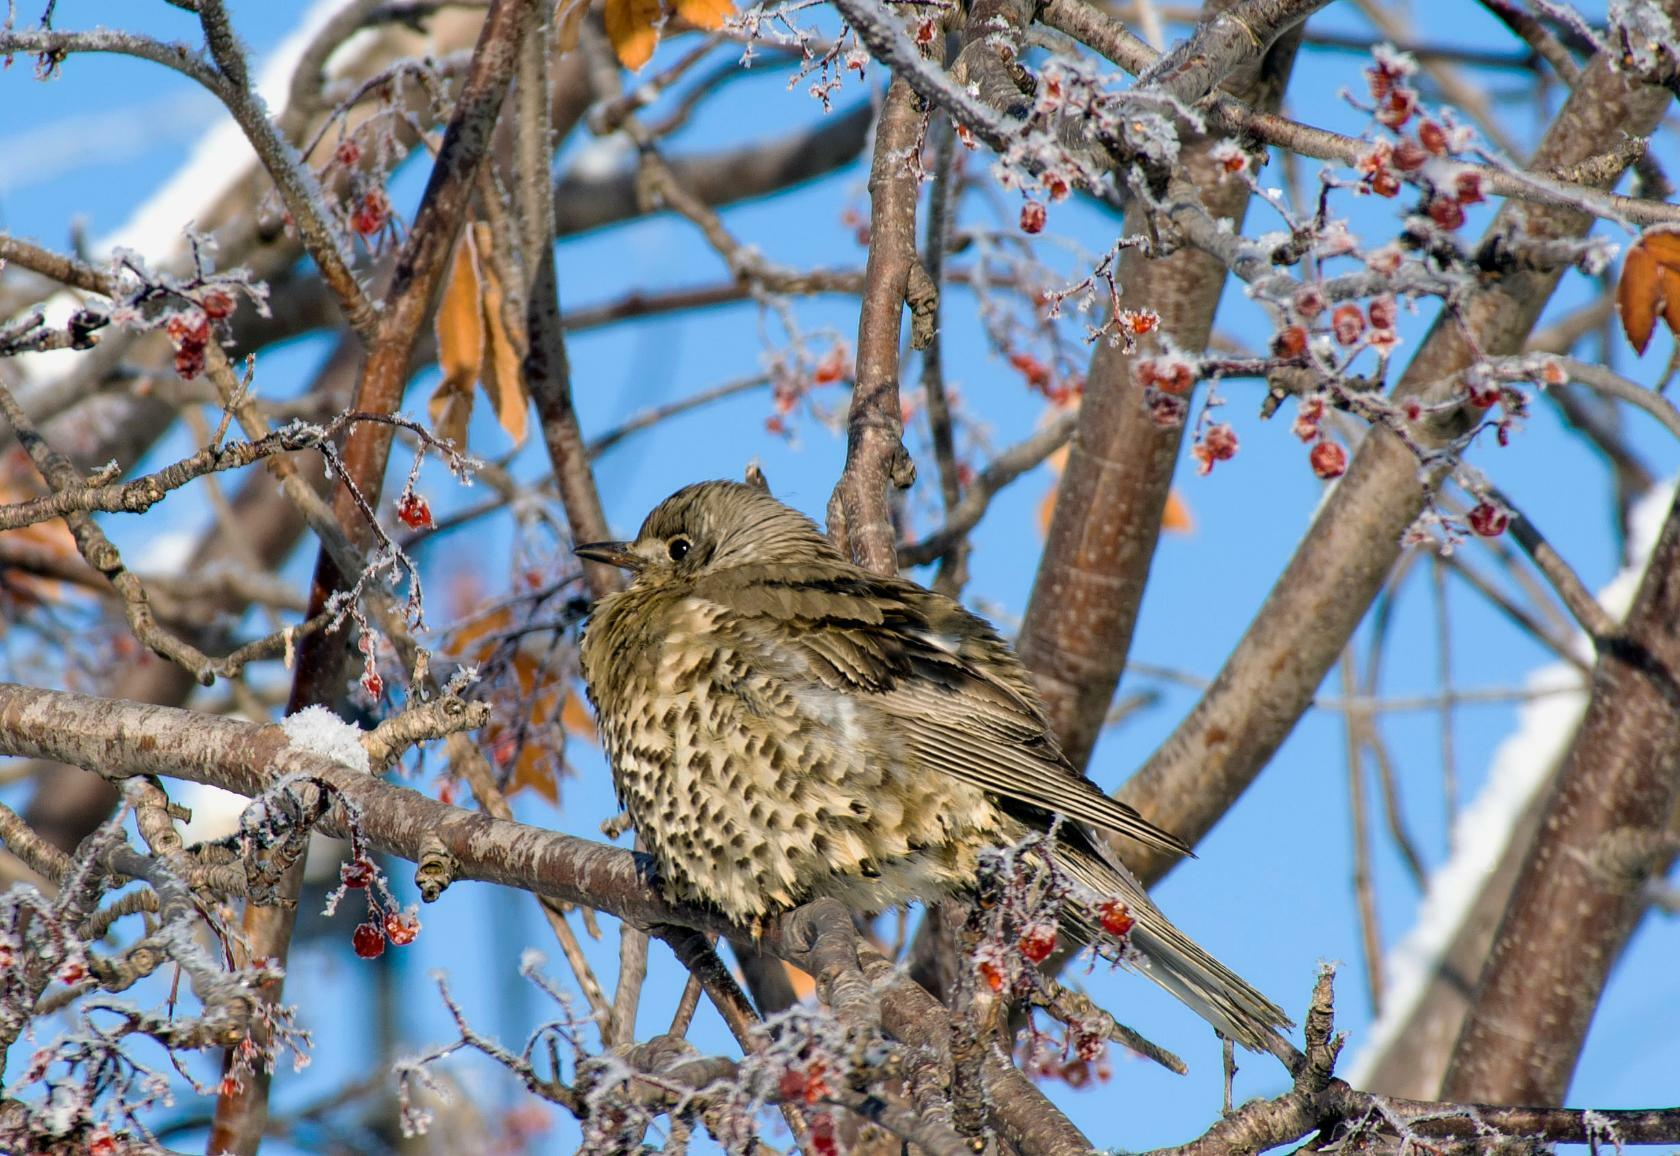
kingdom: Animalia
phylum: Chordata
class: Aves
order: Passeriformes
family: Turdidae
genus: Turdus
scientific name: Turdus viscivorus
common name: Mistle thrush
